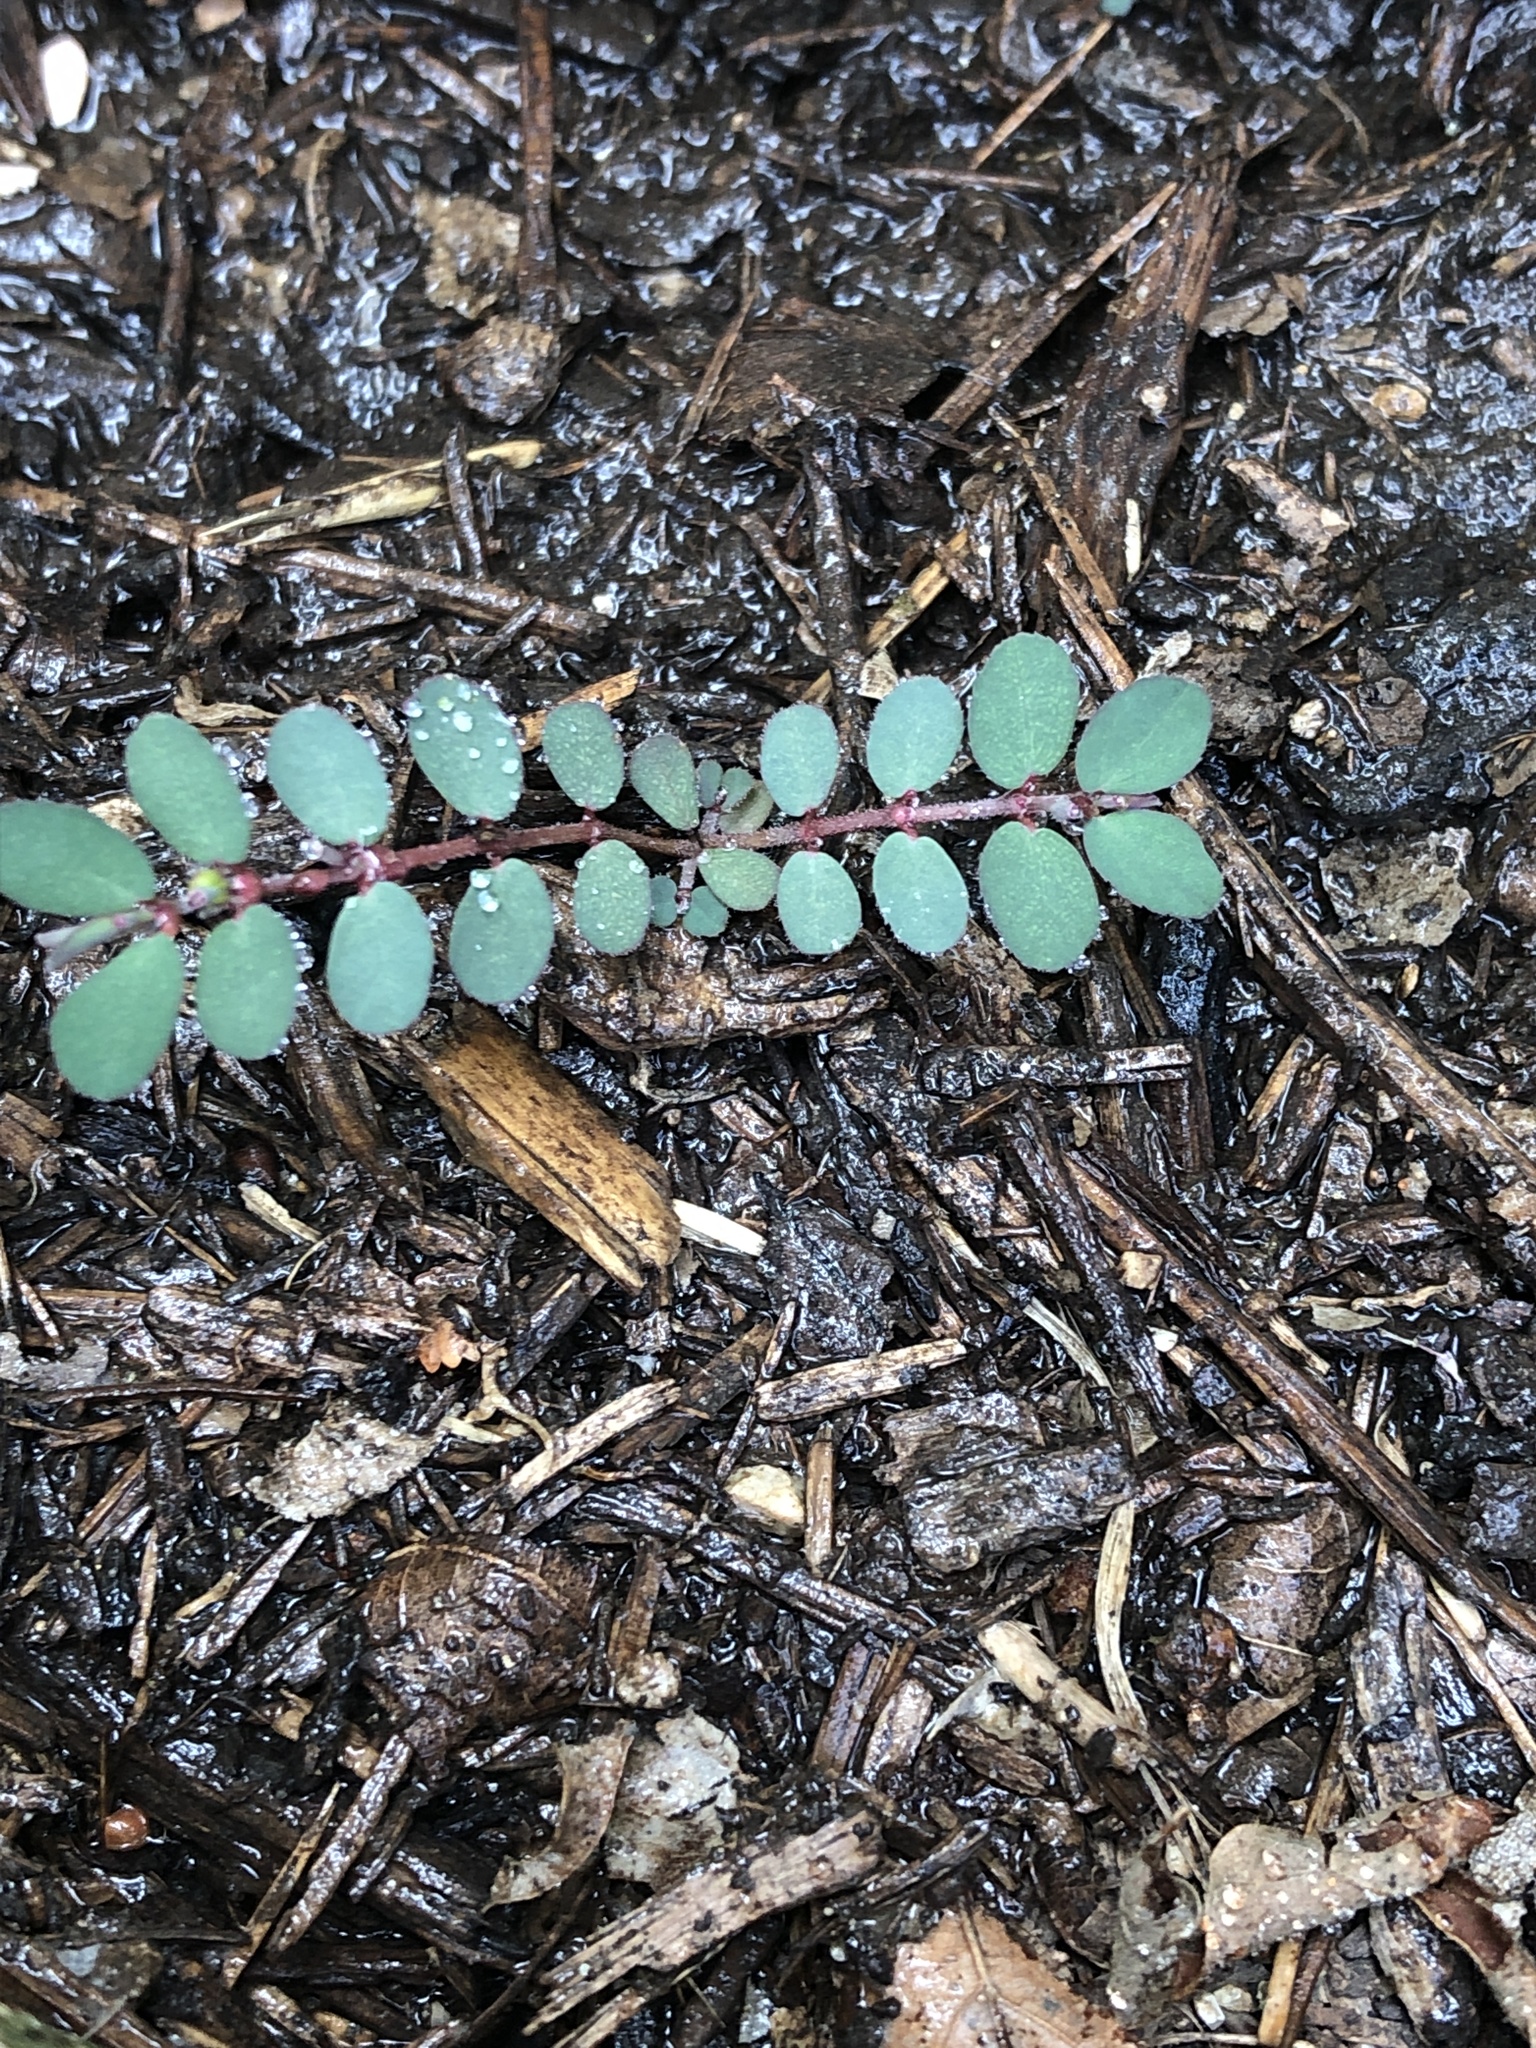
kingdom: Plantae
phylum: Tracheophyta
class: Magnoliopsida
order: Malpighiales
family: Euphorbiaceae
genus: Euphorbia
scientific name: Euphorbia prostrata
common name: Prostrate sandmat
